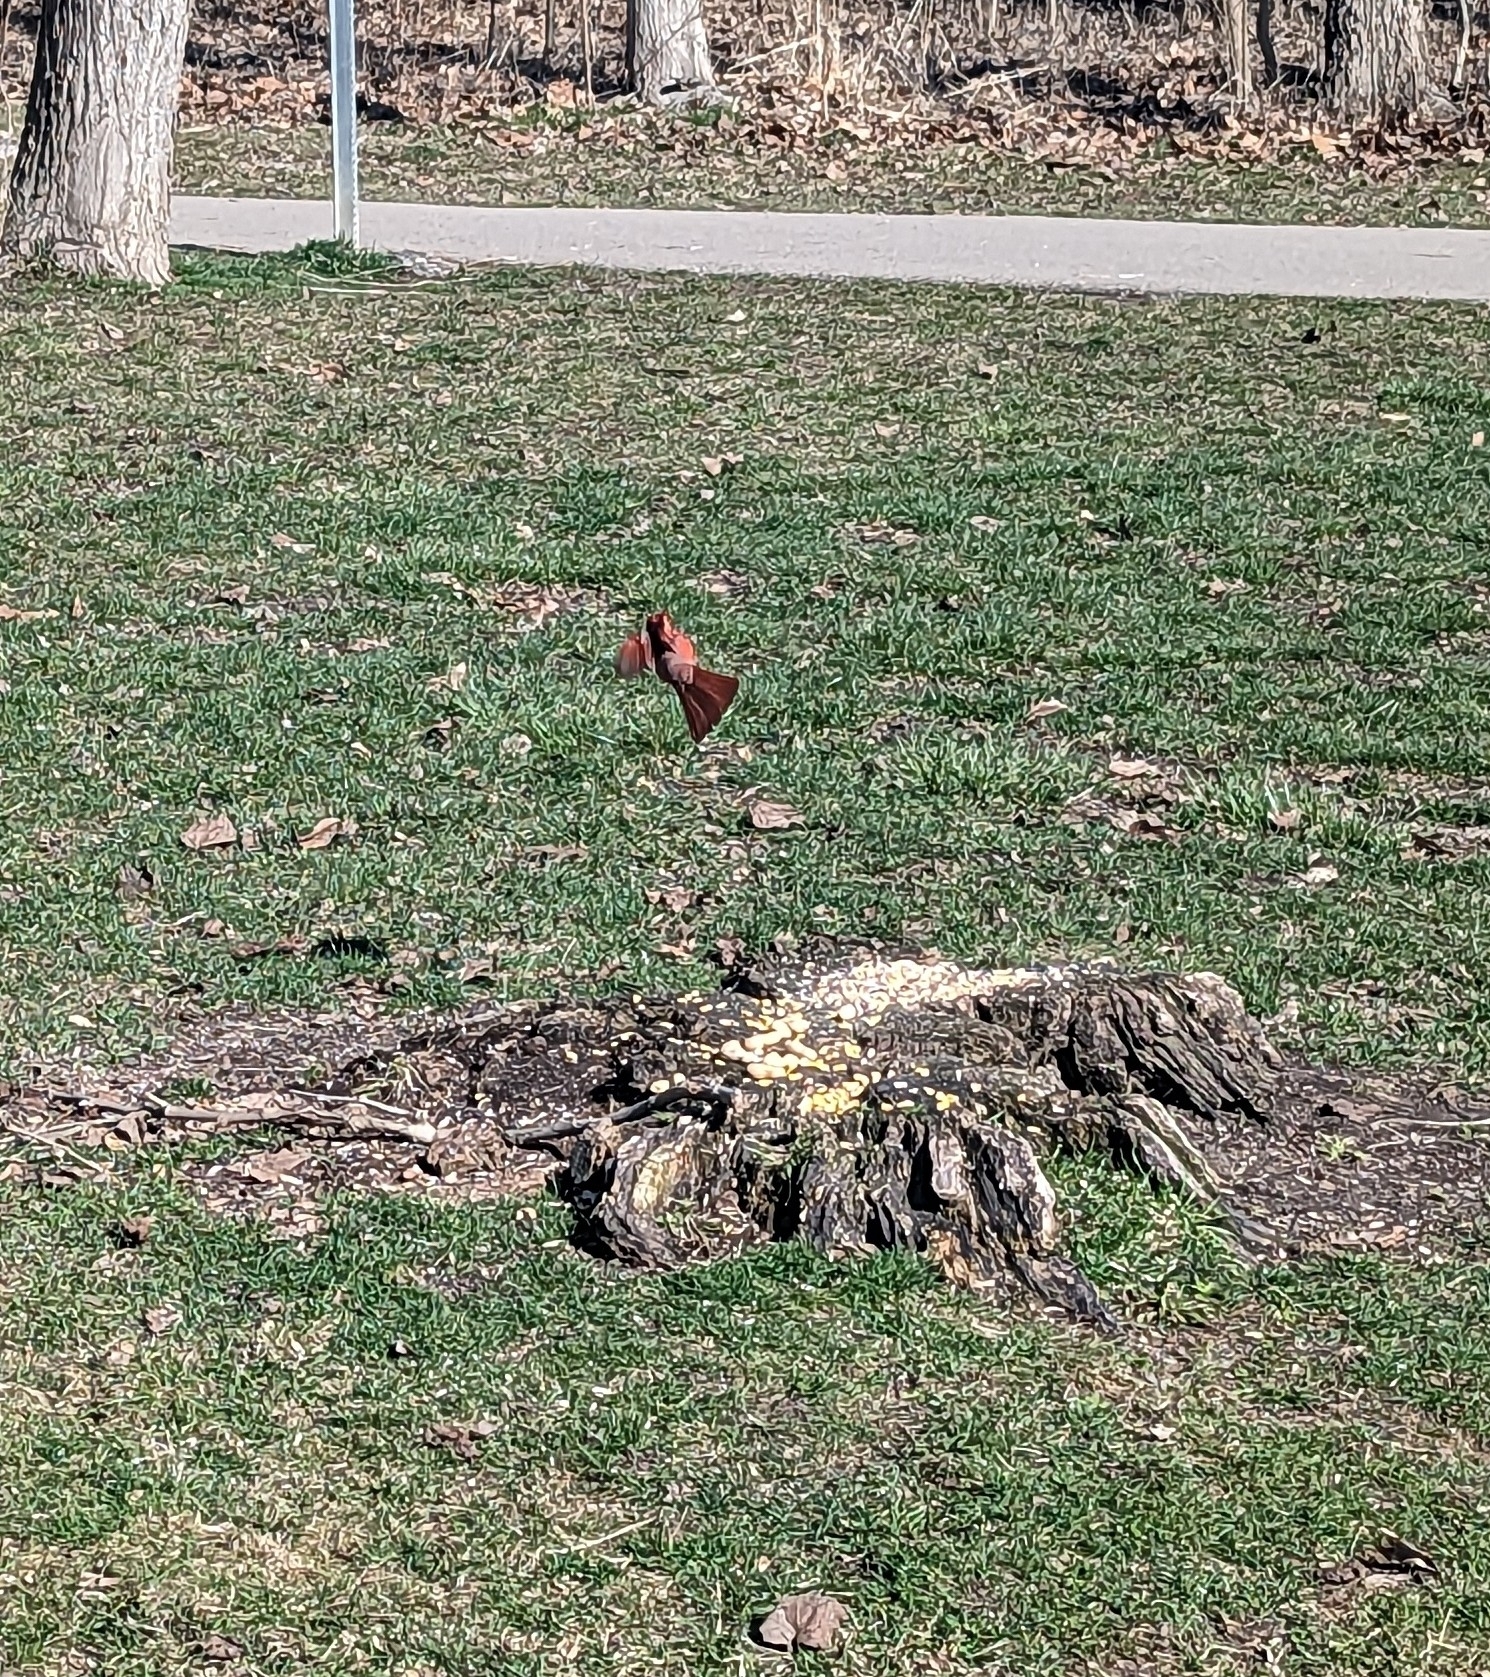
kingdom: Animalia
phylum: Chordata
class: Aves
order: Passeriformes
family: Cardinalidae
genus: Cardinalis
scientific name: Cardinalis cardinalis
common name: Northern cardinal
